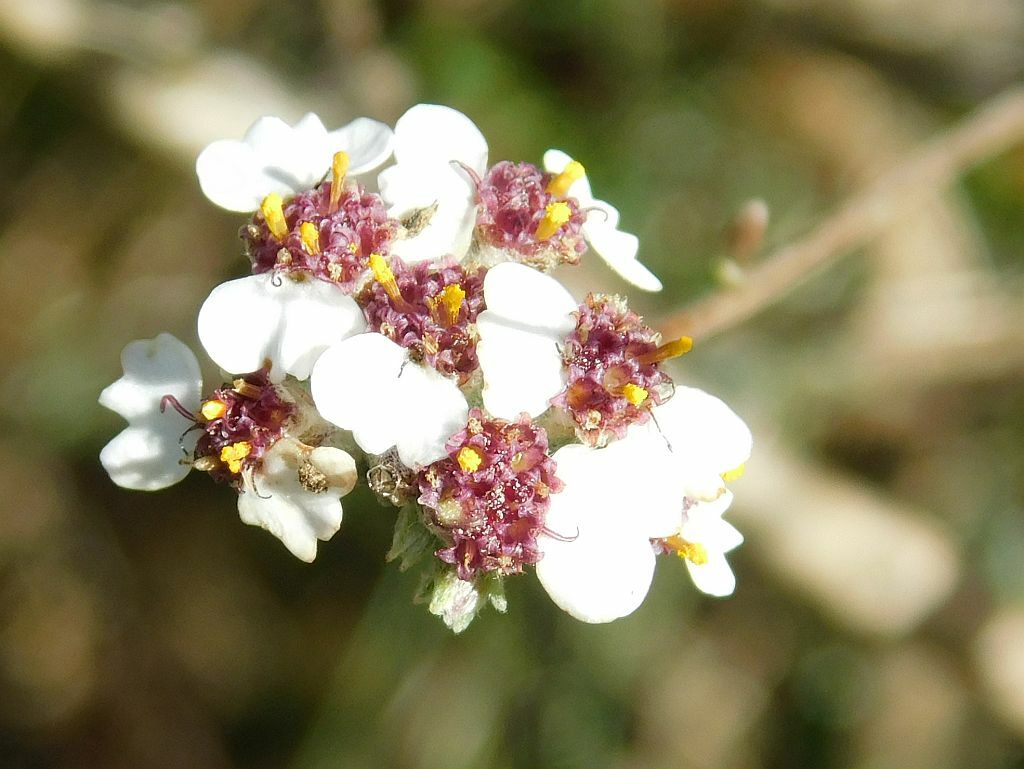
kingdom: Plantae
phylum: Tracheophyta
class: Magnoliopsida
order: Asterales
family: Asteraceae
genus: Eriocephalus
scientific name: Eriocephalus africanus
